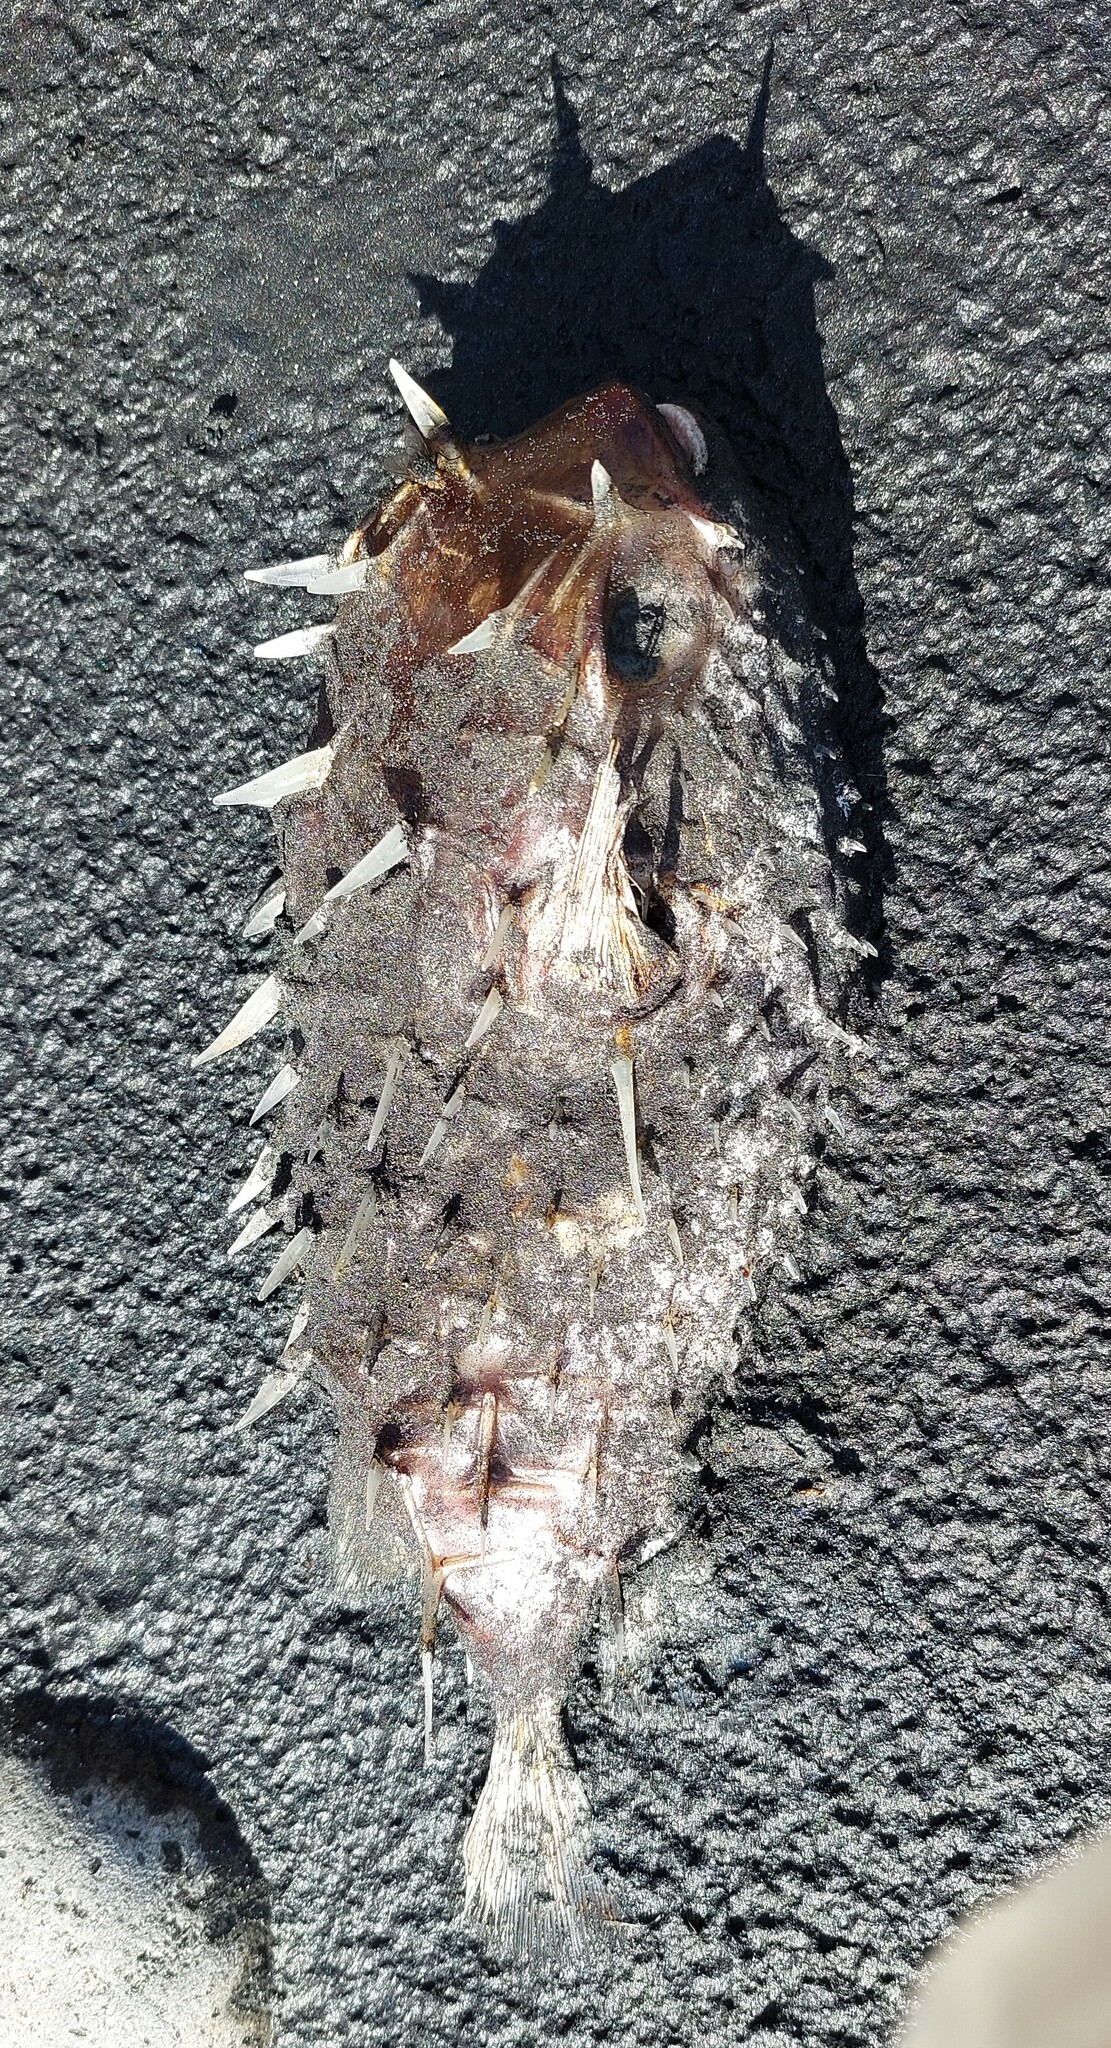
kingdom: Animalia
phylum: Chordata
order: Tetraodontiformes
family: Diodontidae
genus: Allomycterus
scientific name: Allomycterus pilatus
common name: No common name
